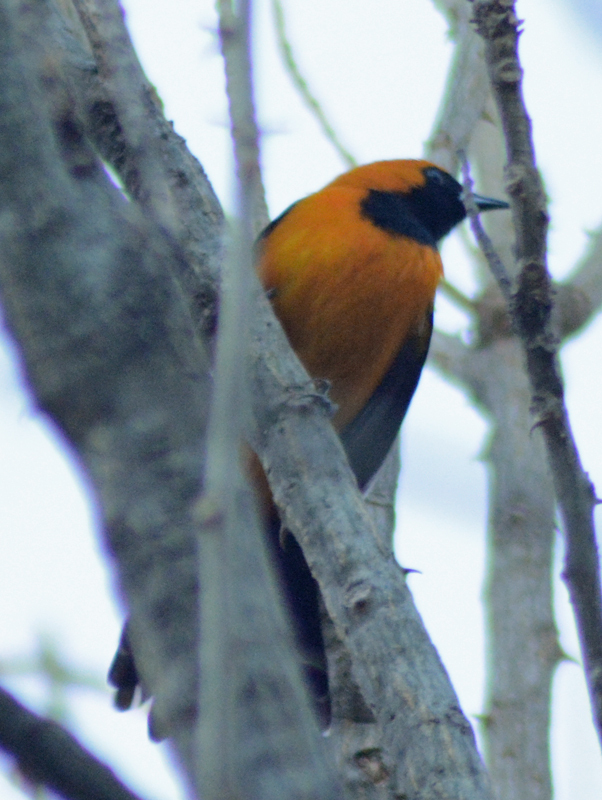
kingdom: Animalia
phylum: Chordata
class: Aves
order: Passeriformes
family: Icteridae
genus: Icterus
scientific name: Icterus cucullatus
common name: Hooded oriole
